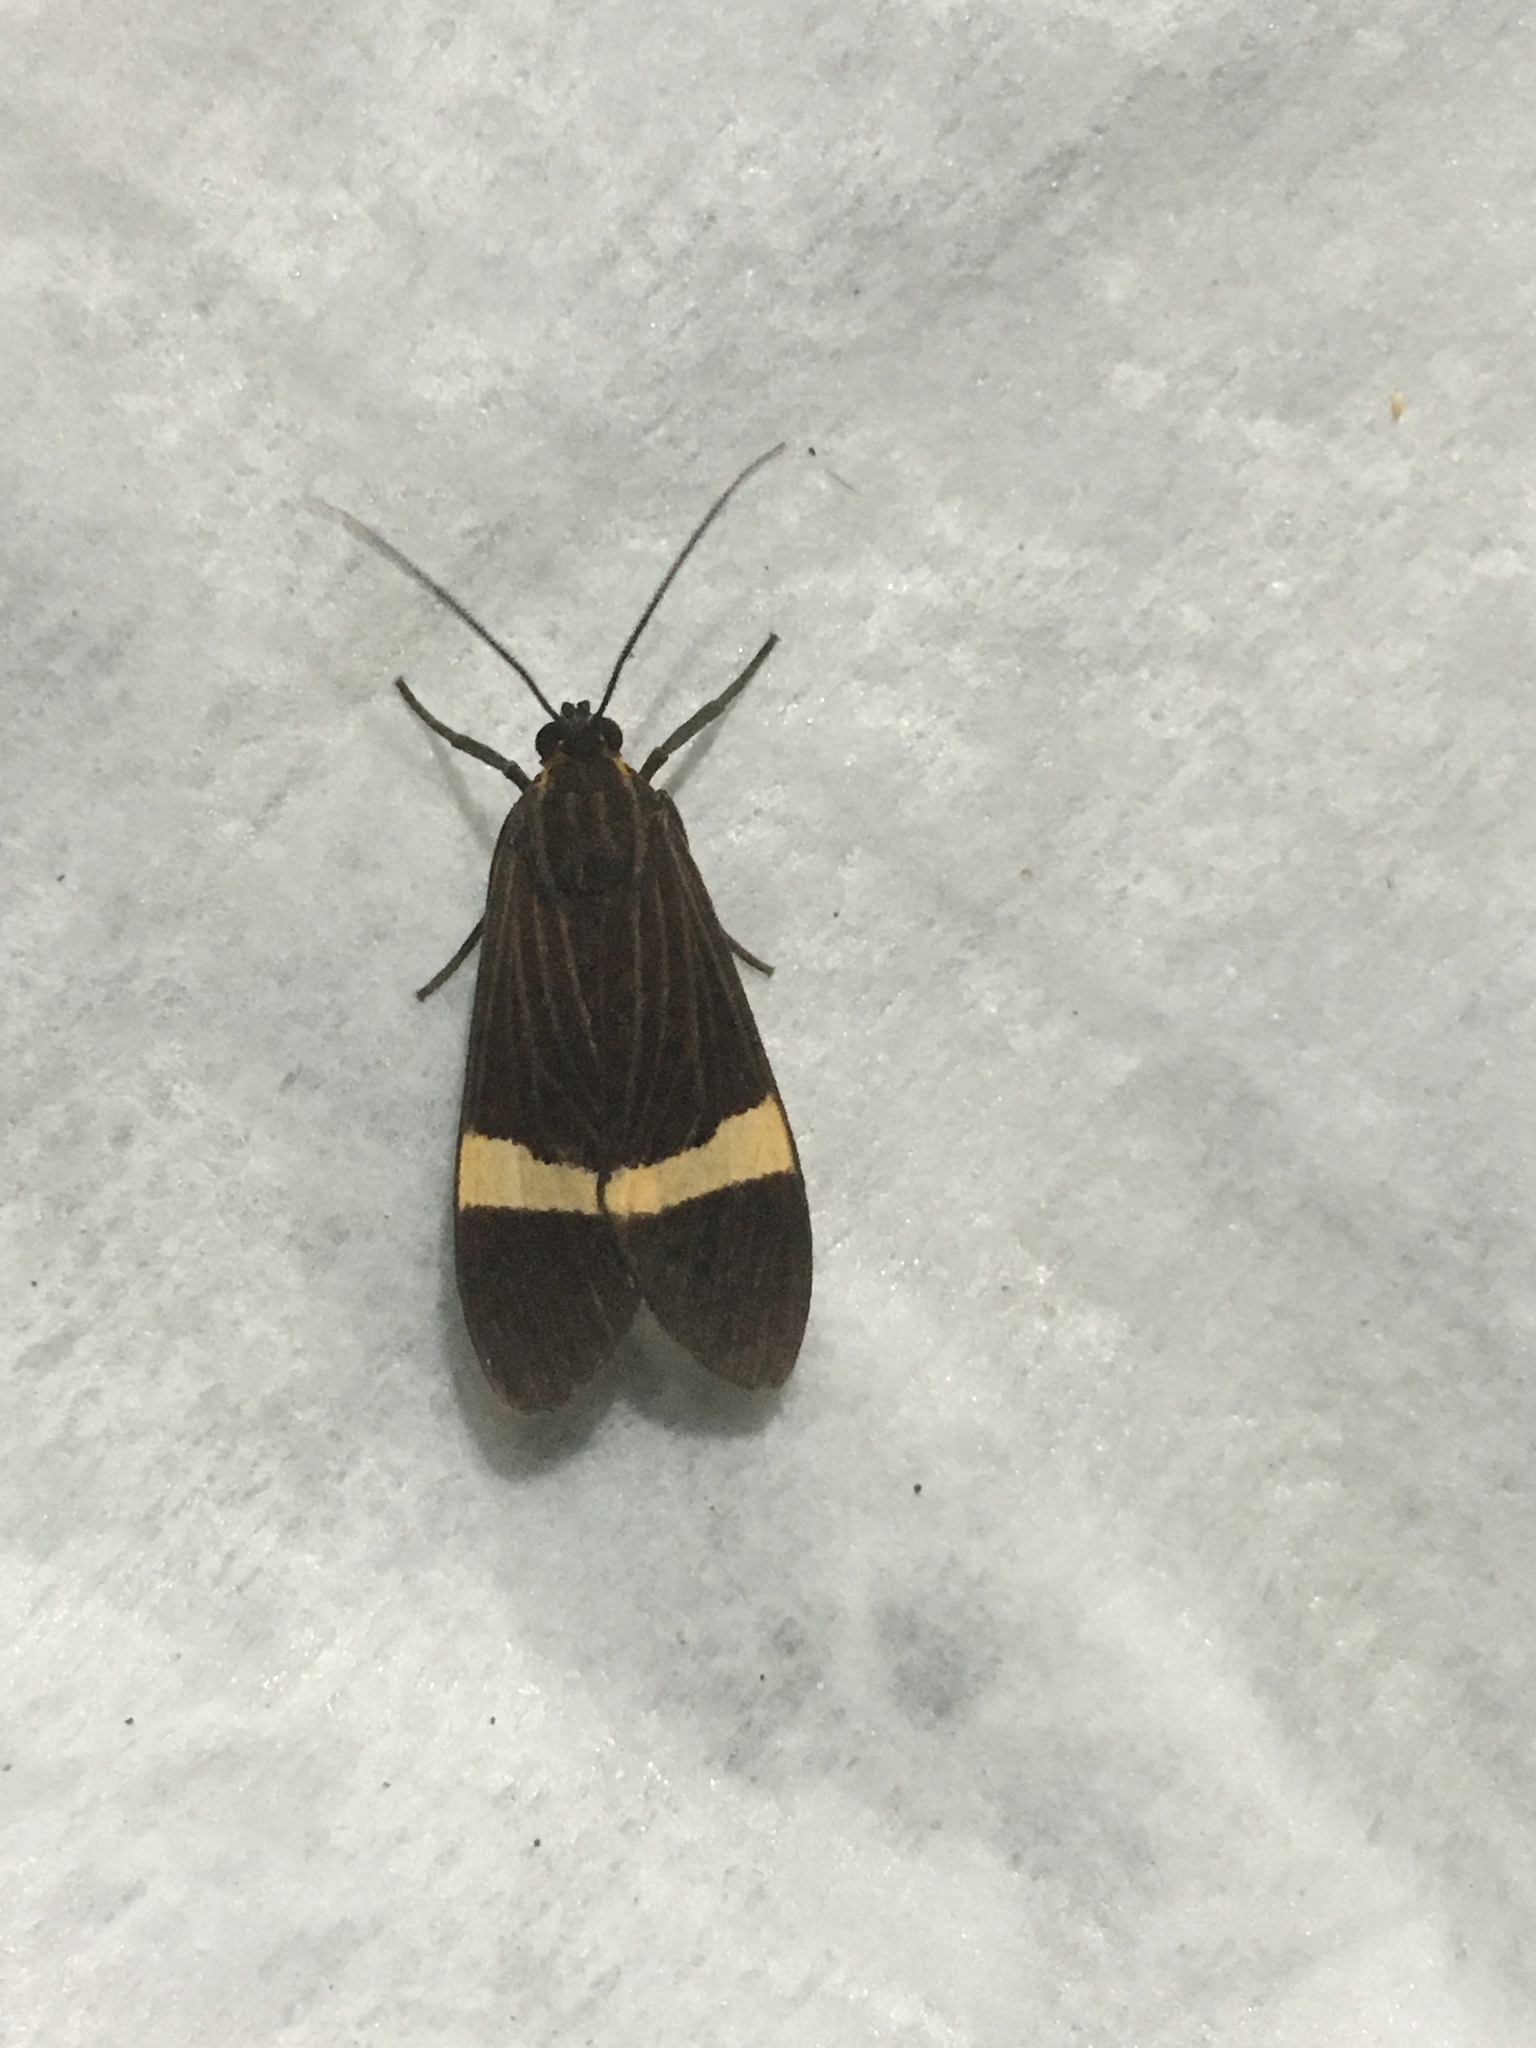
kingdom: Animalia
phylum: Arthropoda
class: Insecta
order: Lepidoptera
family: Erebidae
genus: Aclytia
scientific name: Aclytia heber
